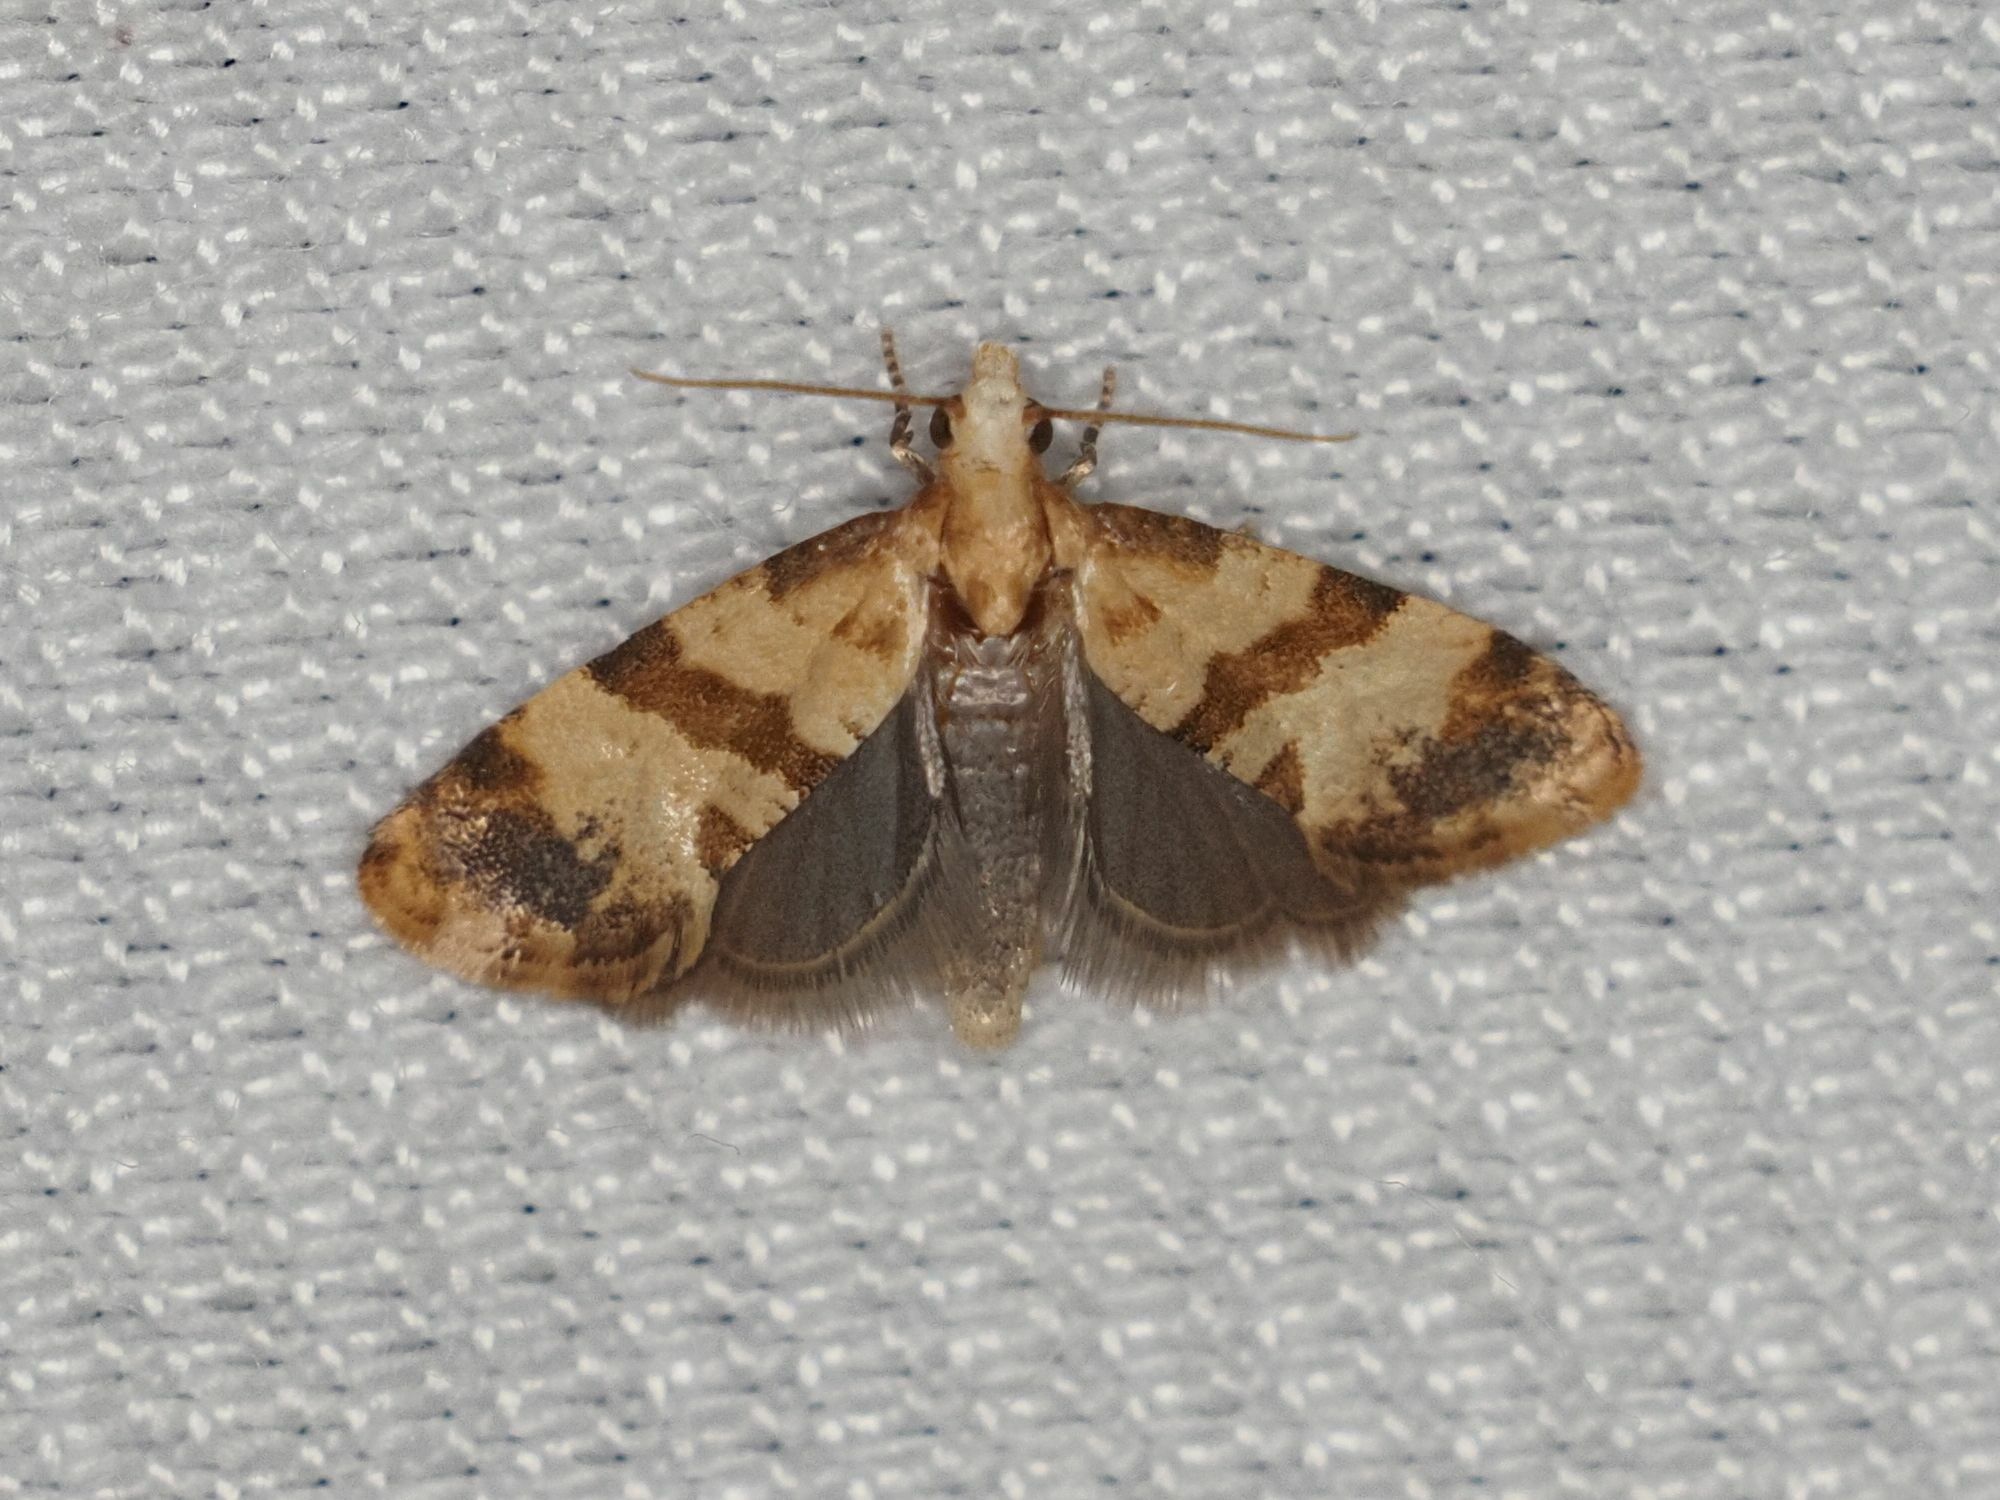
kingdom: Animalia
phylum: Arthropoda
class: Insecta
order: Lepidoptera
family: Tortricidae
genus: Phalonidia
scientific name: Phalonidia contractana
